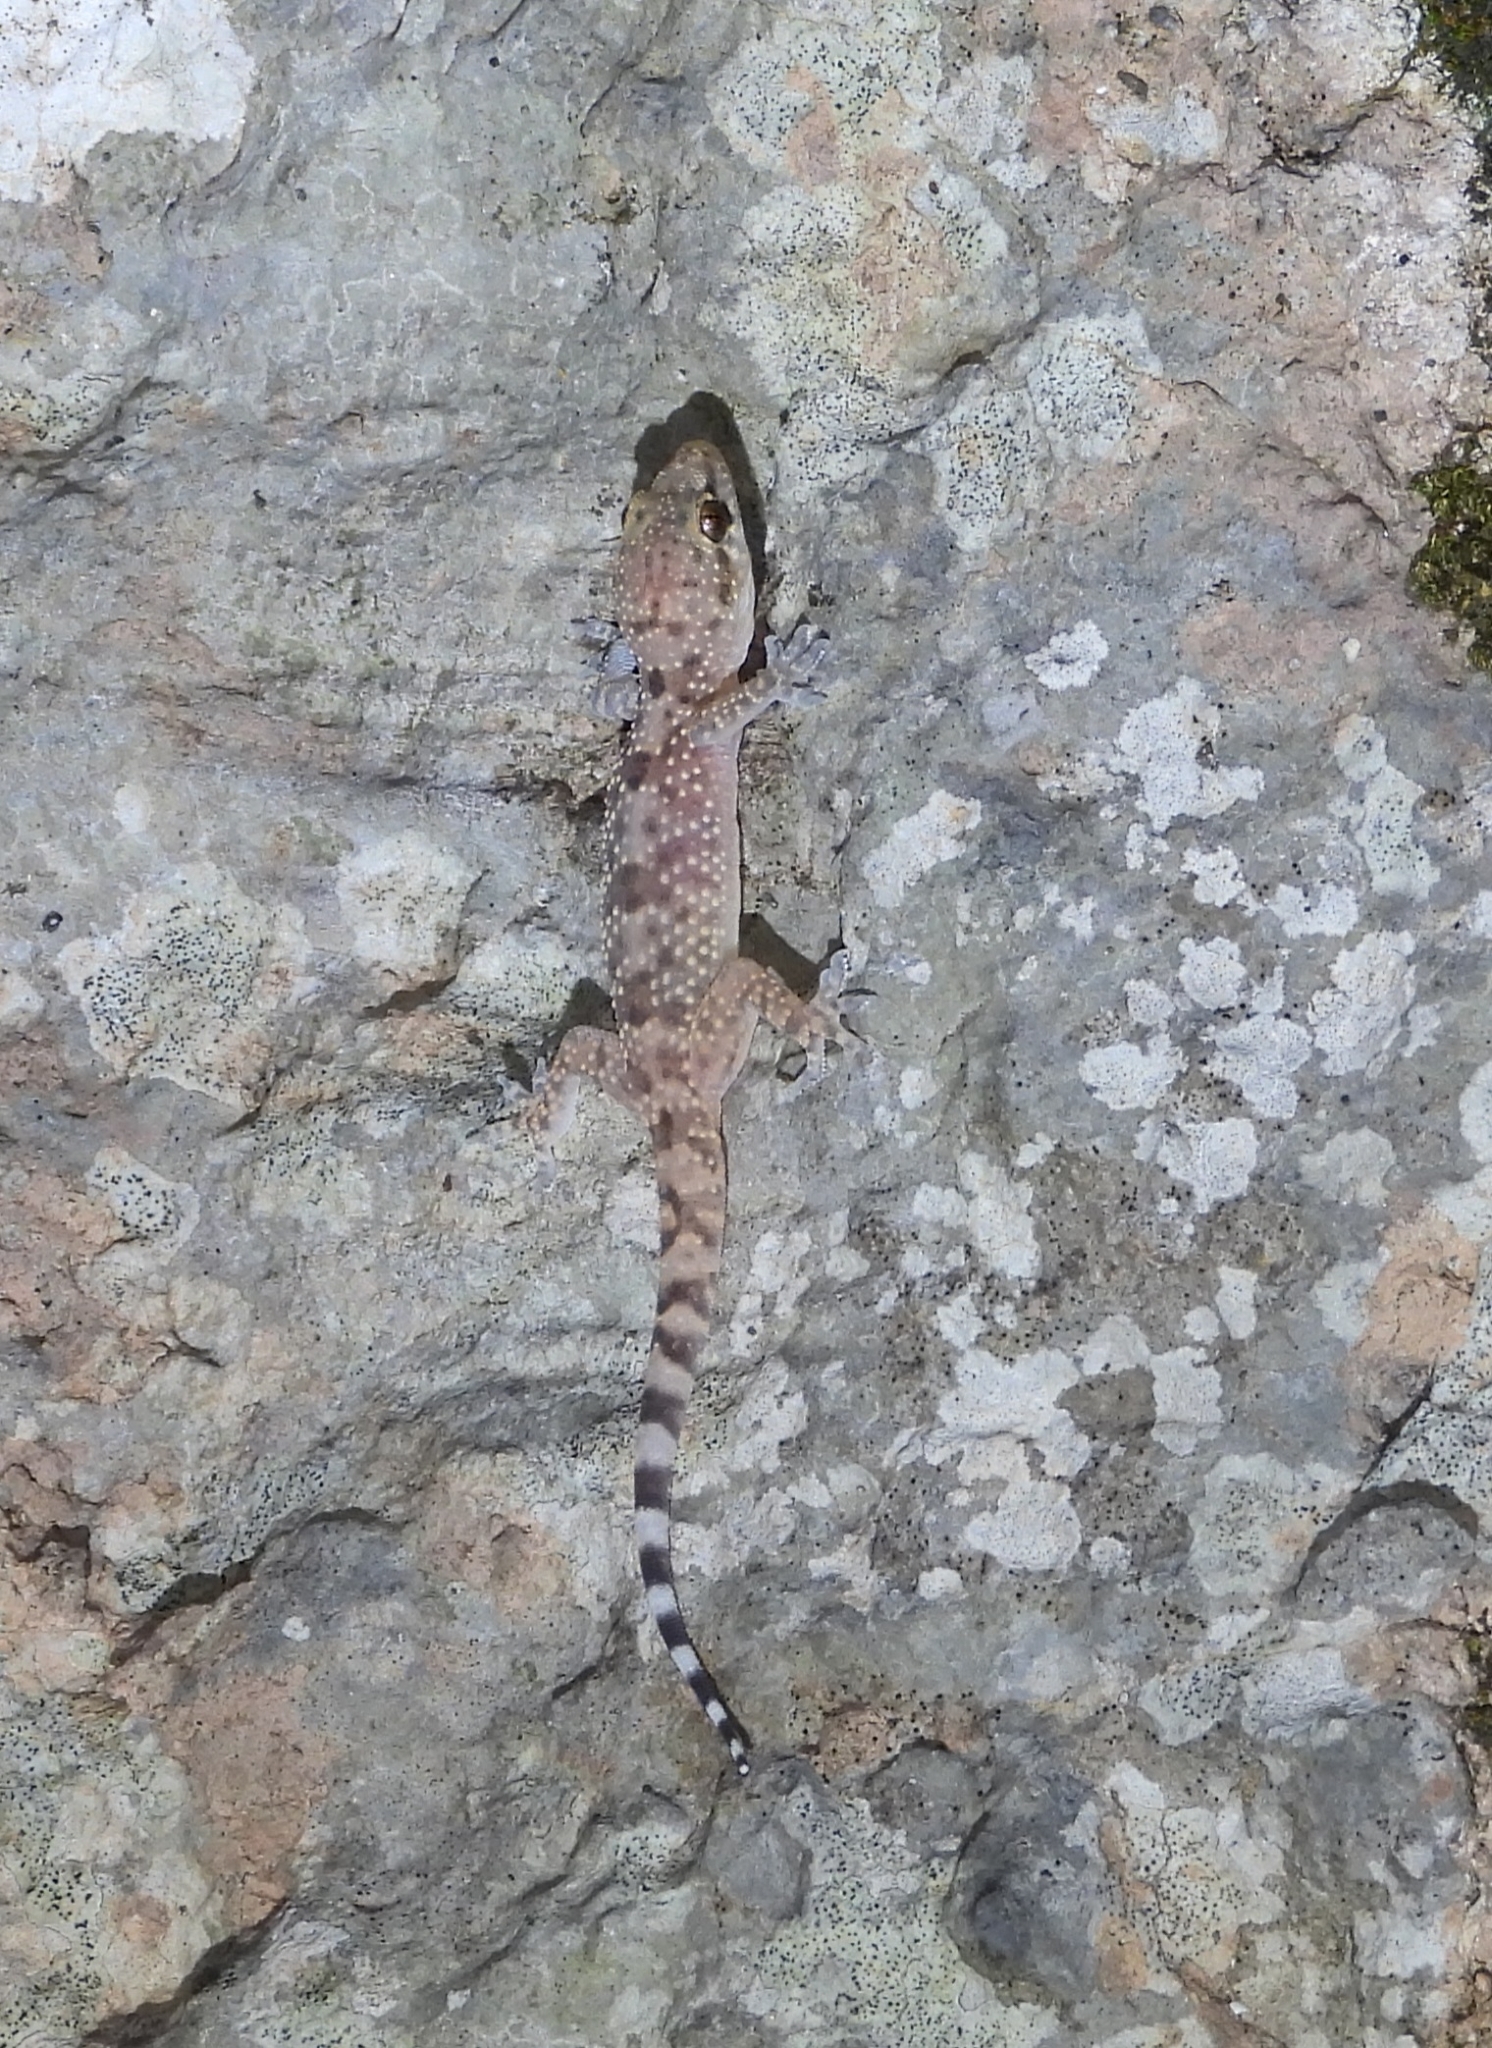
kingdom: Animalia
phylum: Chordata
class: Squamata
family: Gekkonidae
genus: Hemidactylus
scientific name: Hemidactylus turcicus
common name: Turkish gecko
